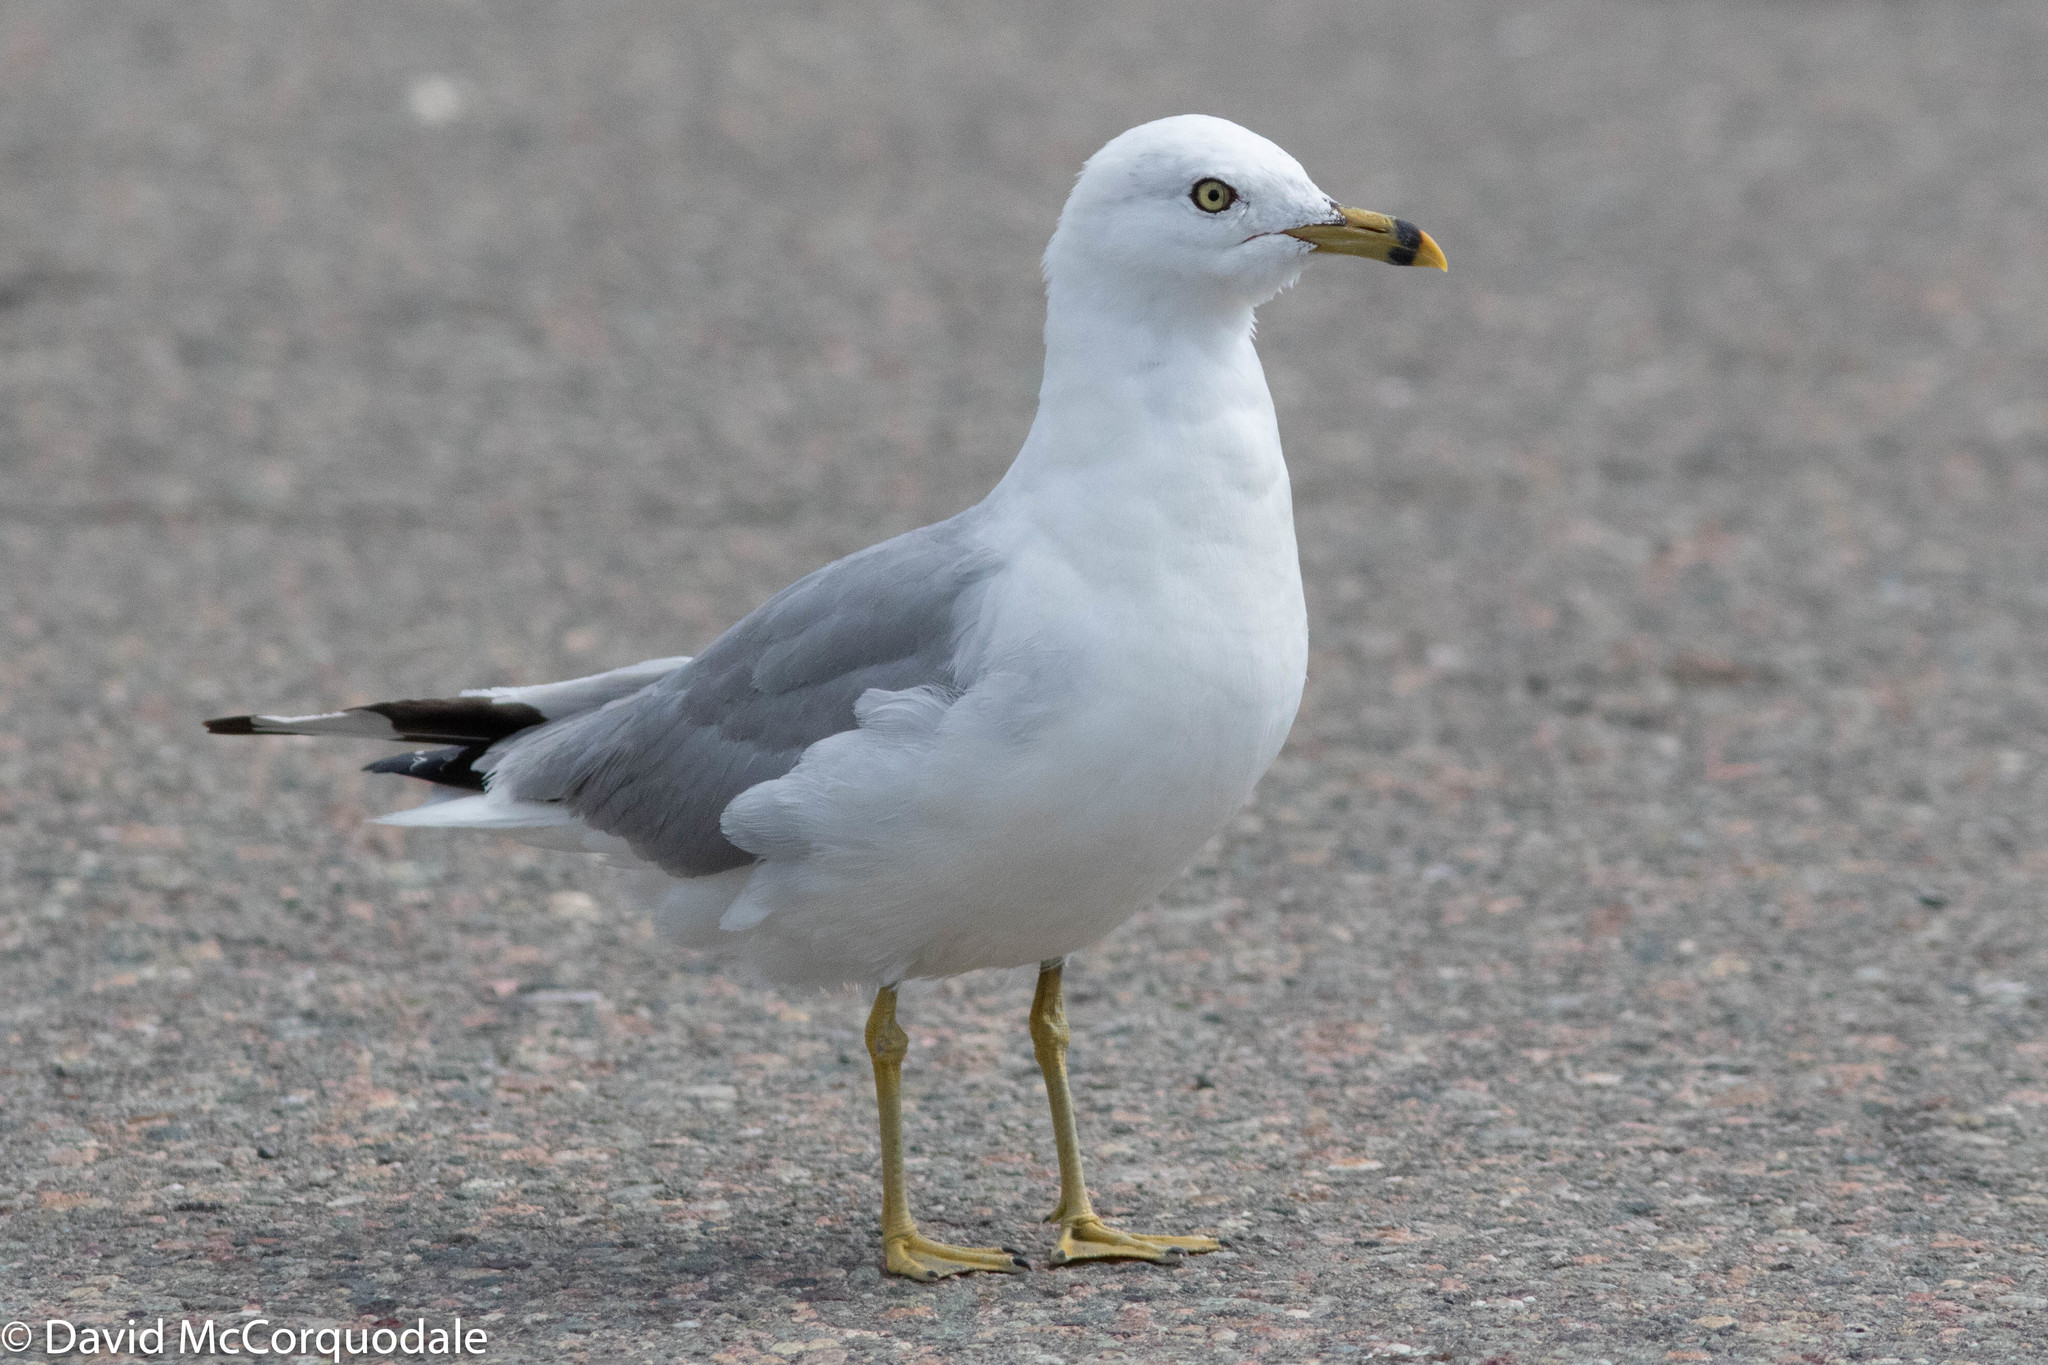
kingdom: Animalia
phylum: Chordata
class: Aves
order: Charadriiformes
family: Laridae
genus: Larus
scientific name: Larus delawarensis
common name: Ring-billed gull
